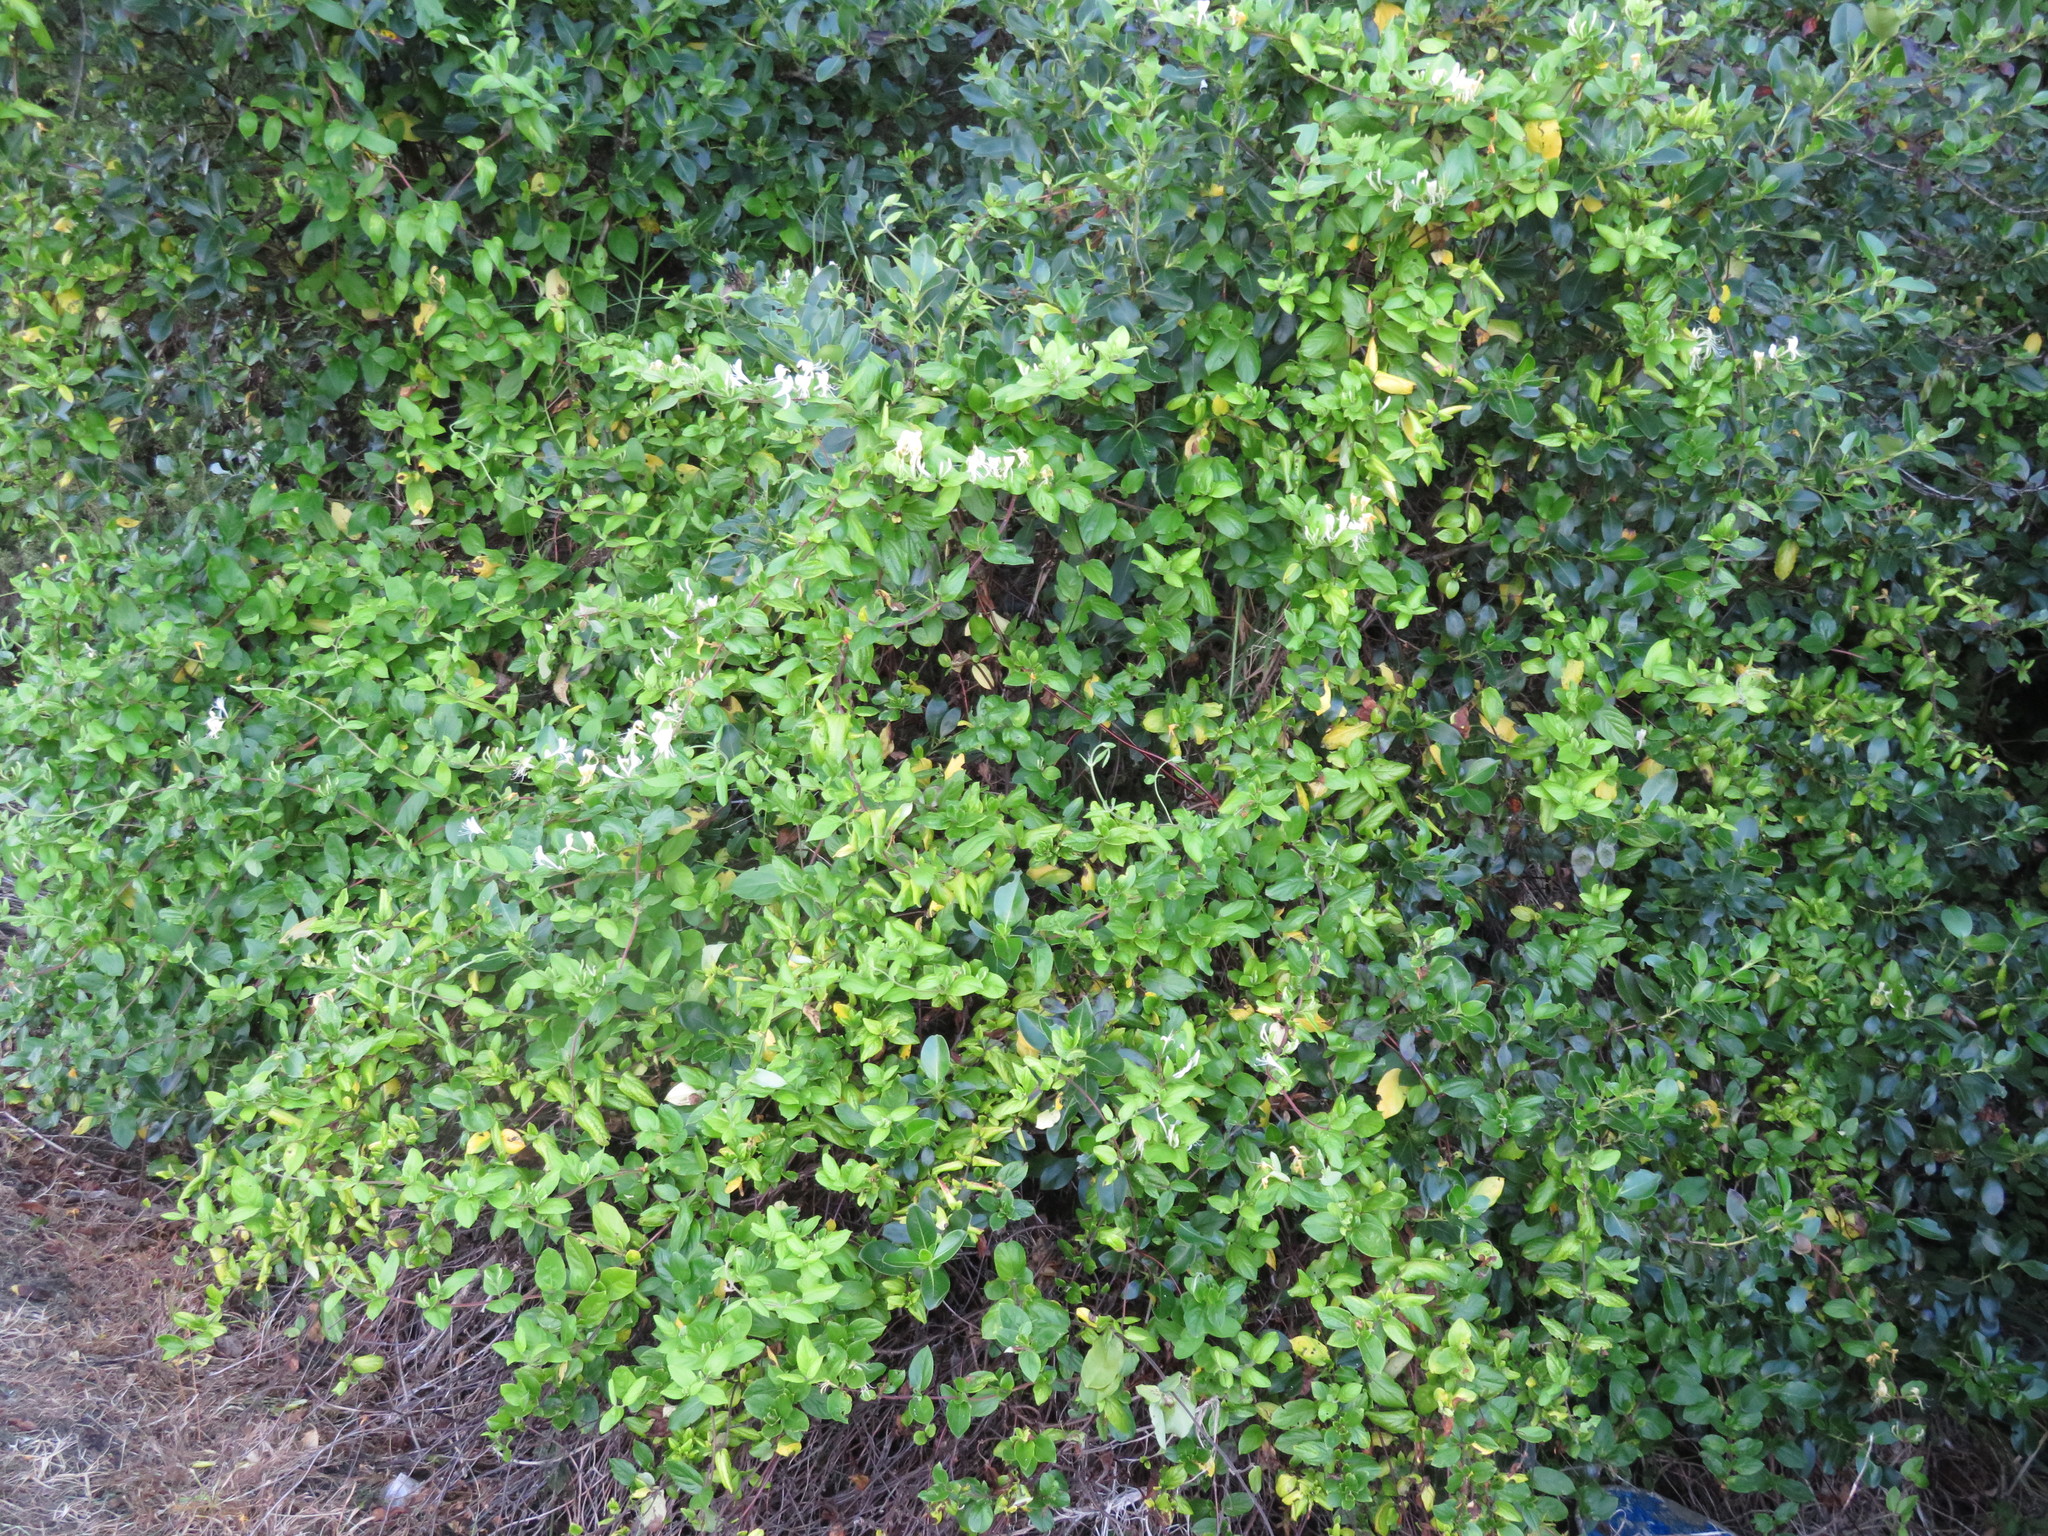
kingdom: Plantae
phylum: Tracheophyta
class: Magnoliopsida
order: Dipsacales
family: Caprifoliaceae
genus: Lonicera
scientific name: Lonicera japonica
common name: Japanese honeysuckle
